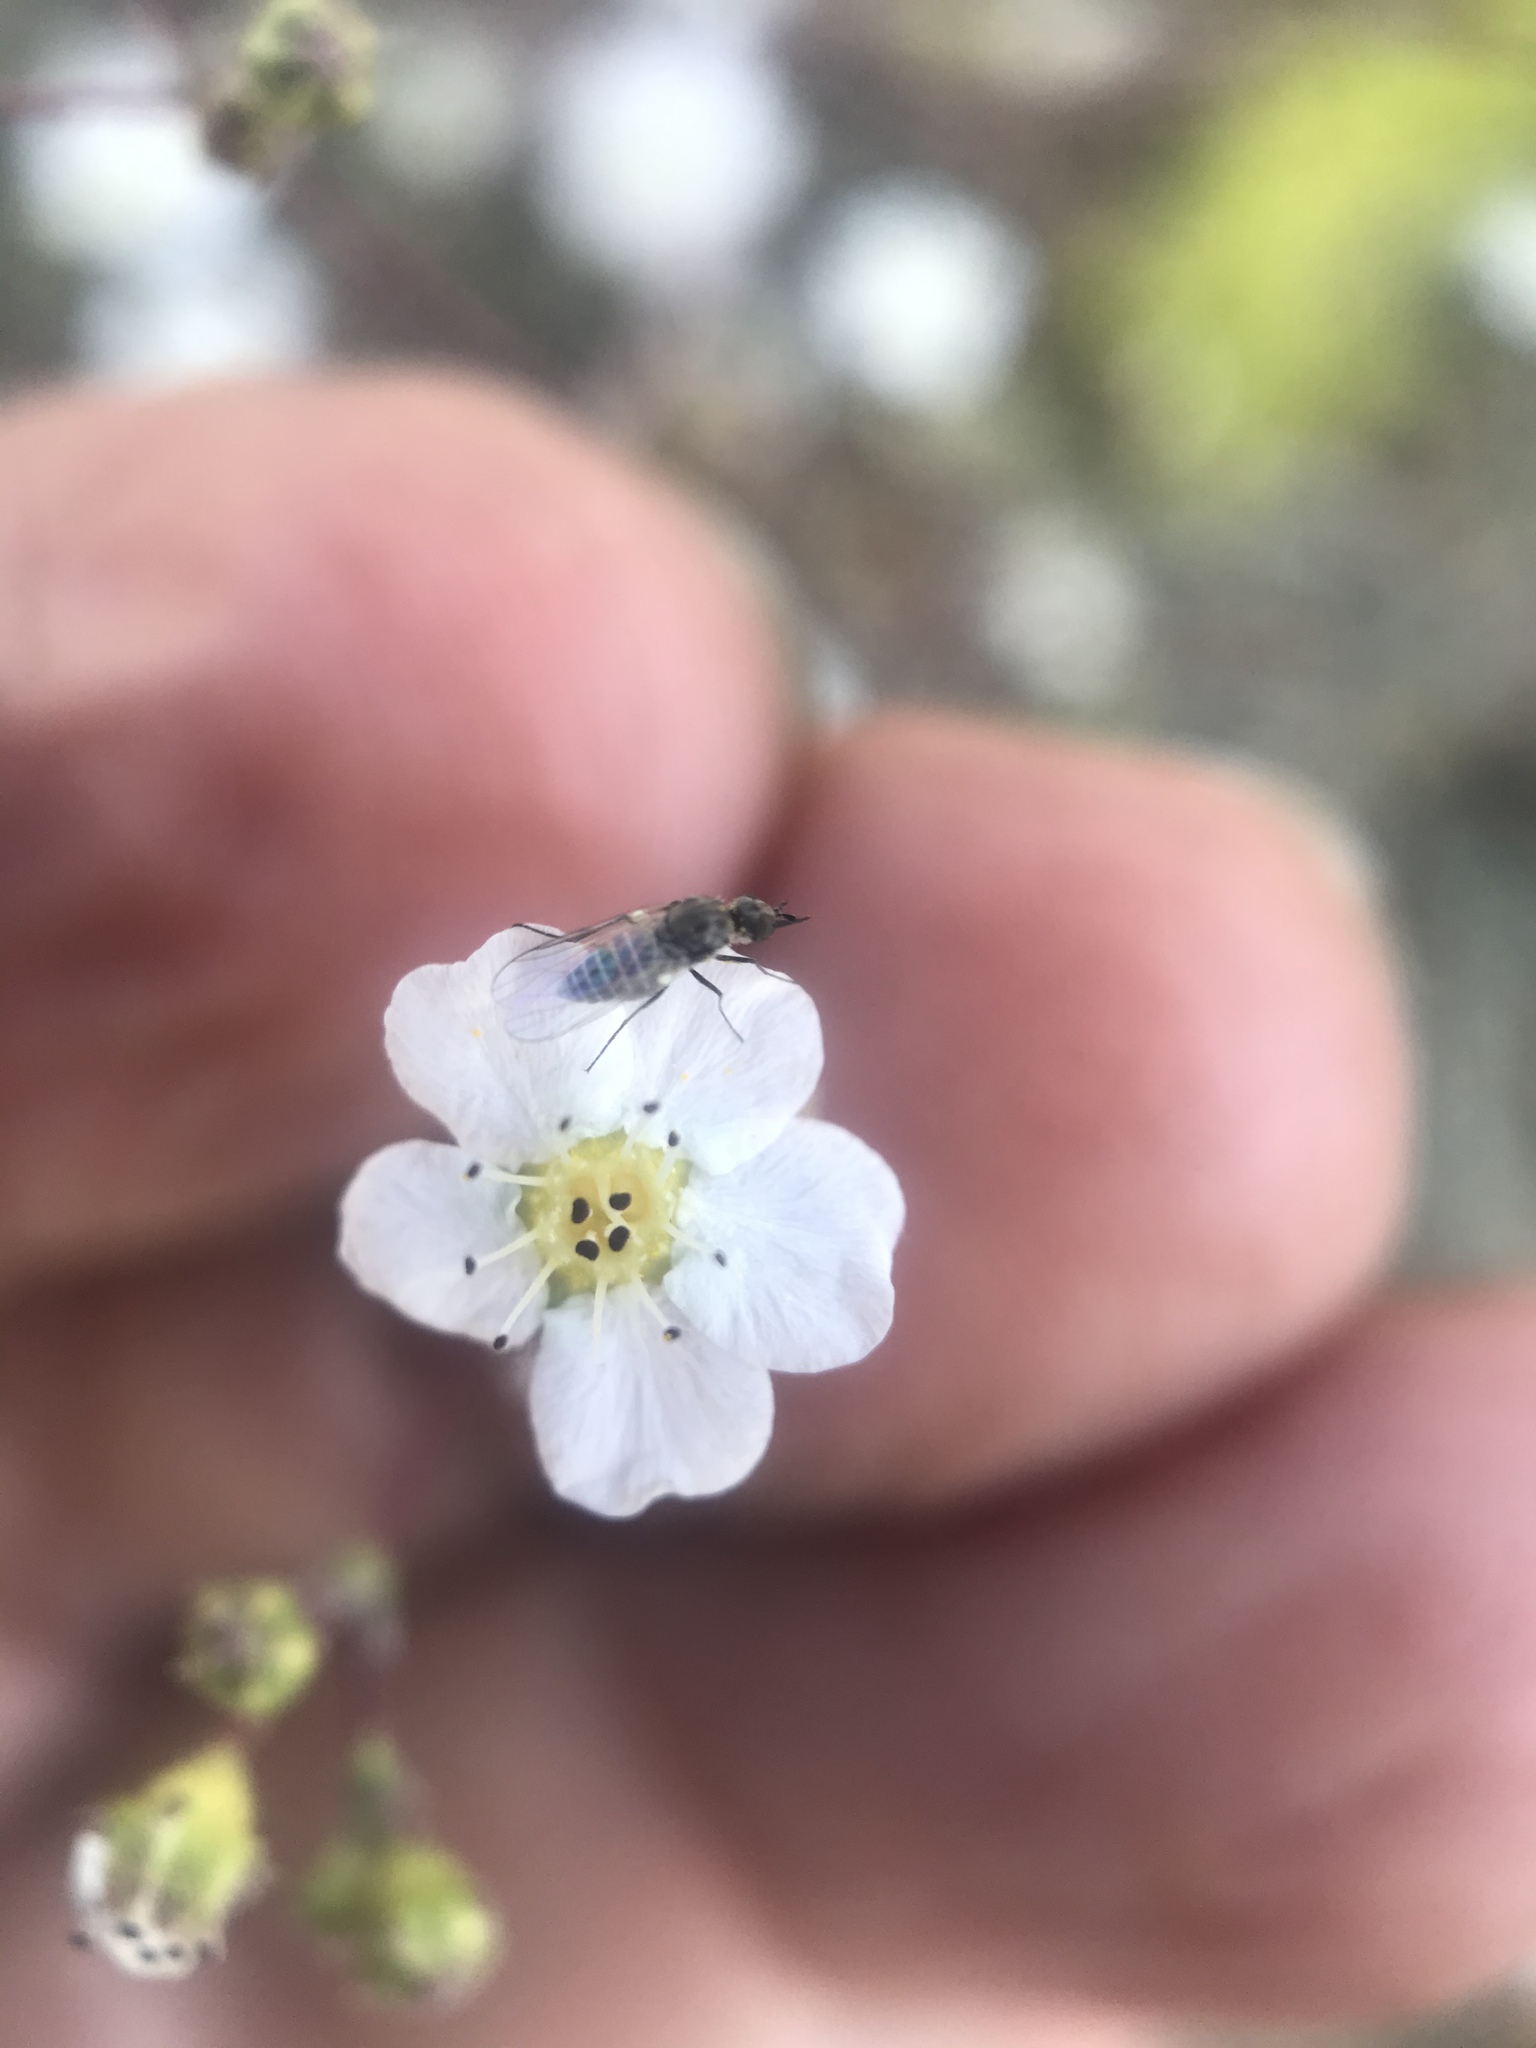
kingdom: Plantae
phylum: Tracheophyta
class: Magnoliopsida
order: Rosales
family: Rosaceae
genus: Potentilla
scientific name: Potentilla santolinoides
